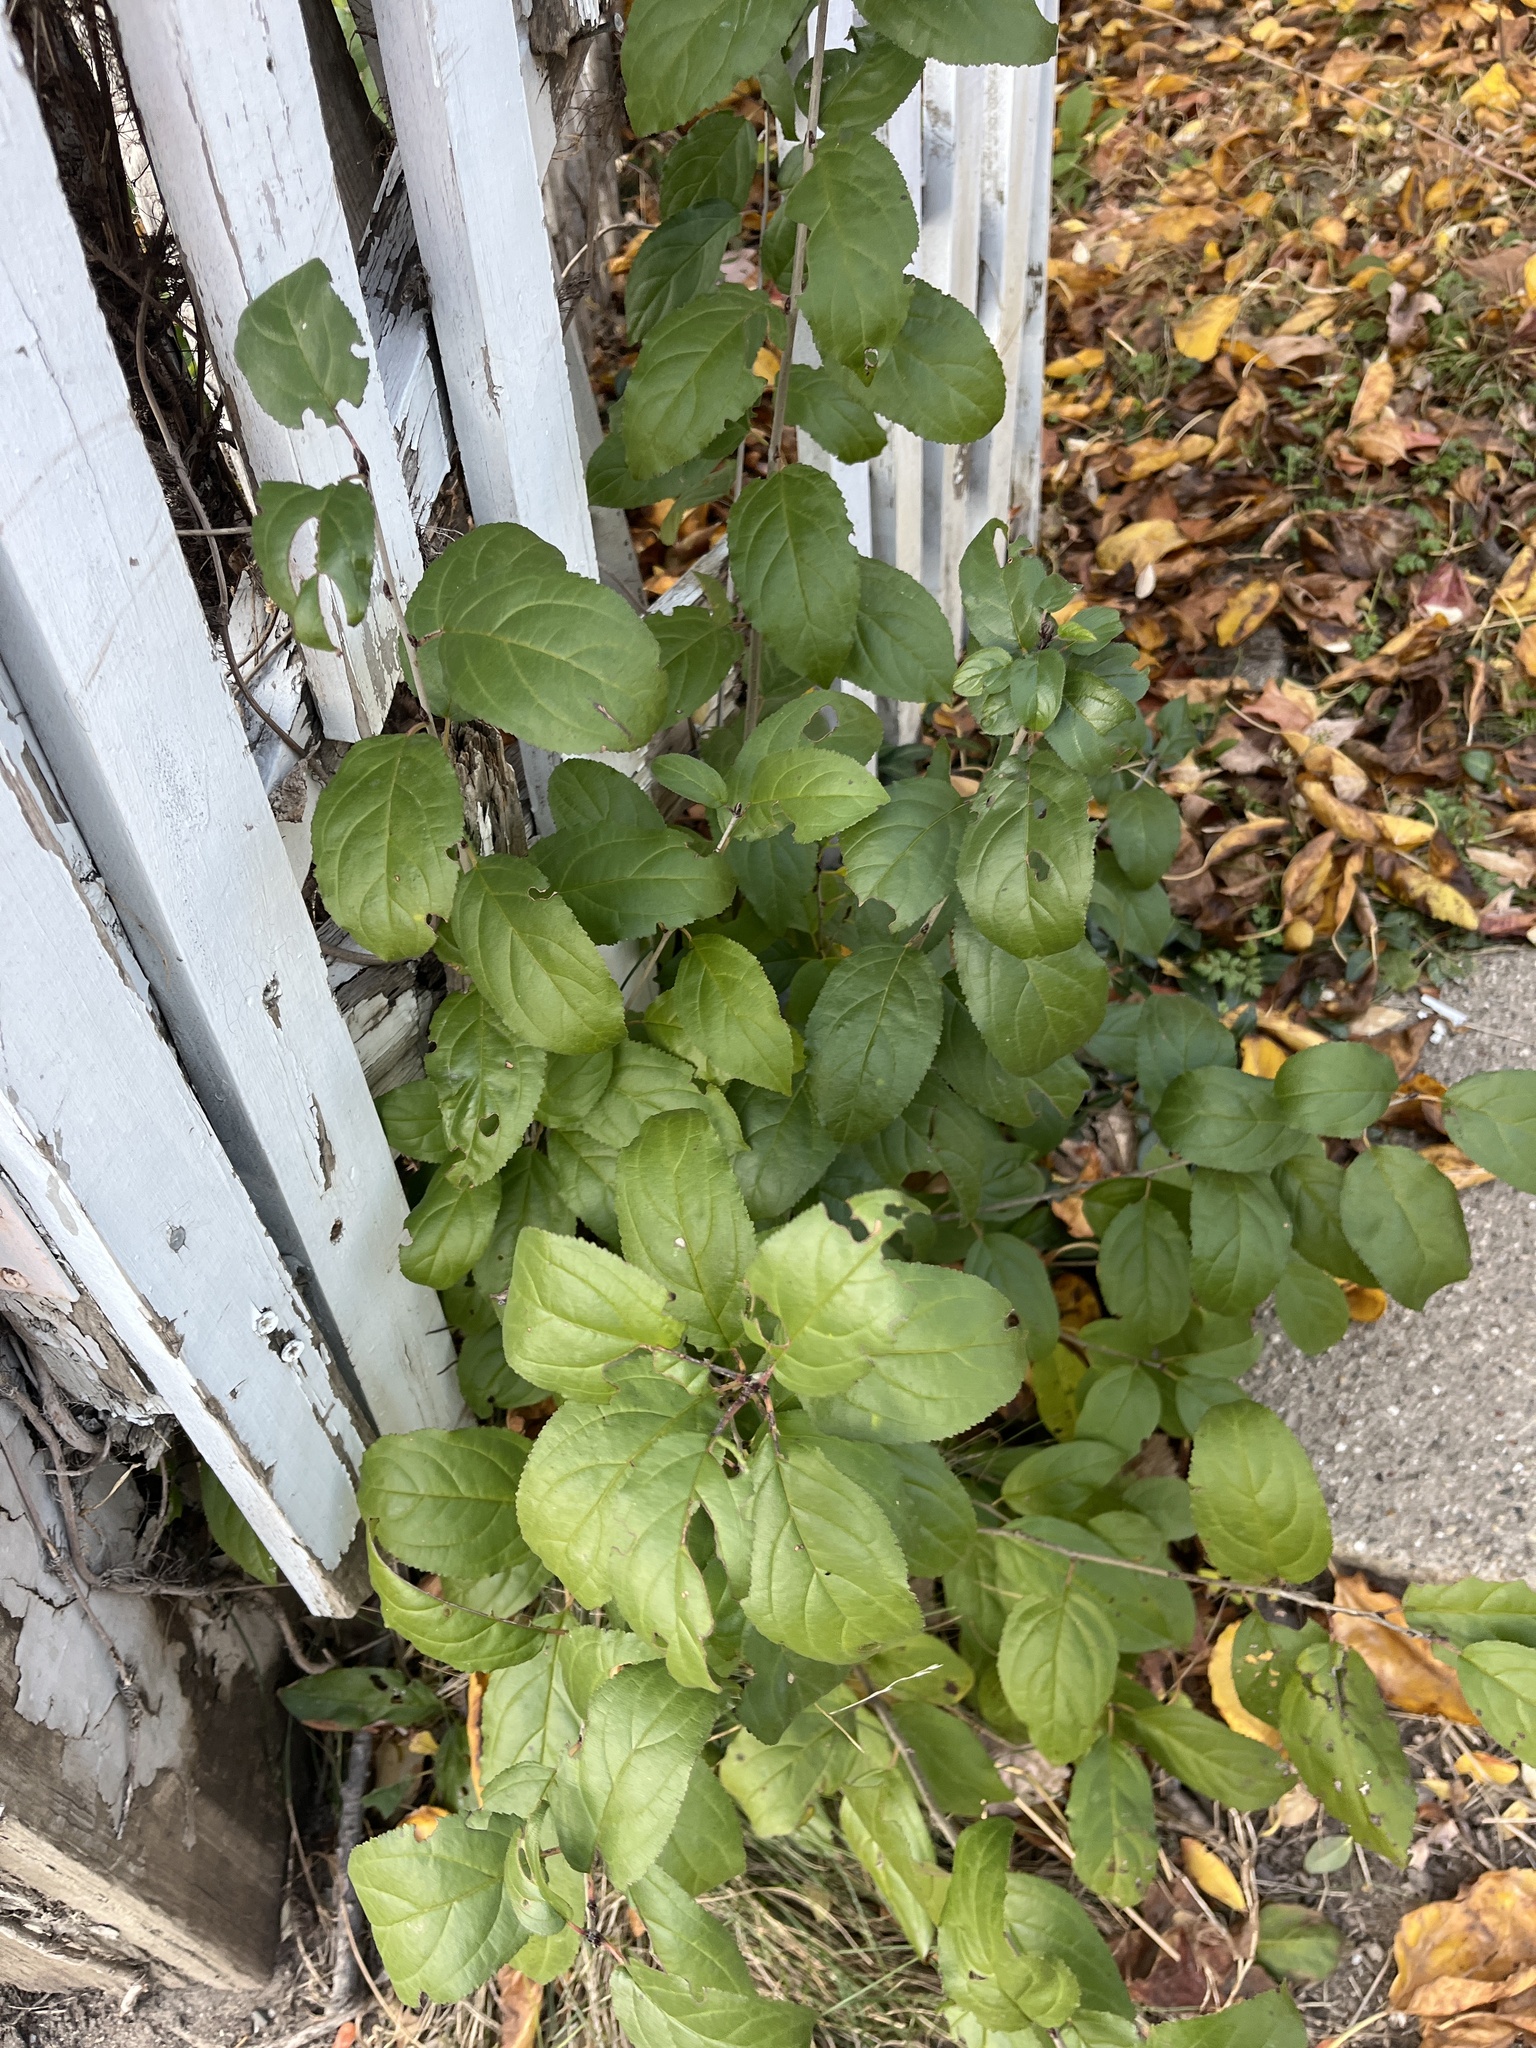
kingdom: Plantae
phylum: Tracheophyta
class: Magnoliopsida
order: Rosales
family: Rhamnaceae
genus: Rhamnus
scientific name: Rhamnus cathartica
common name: Common buckthorn
